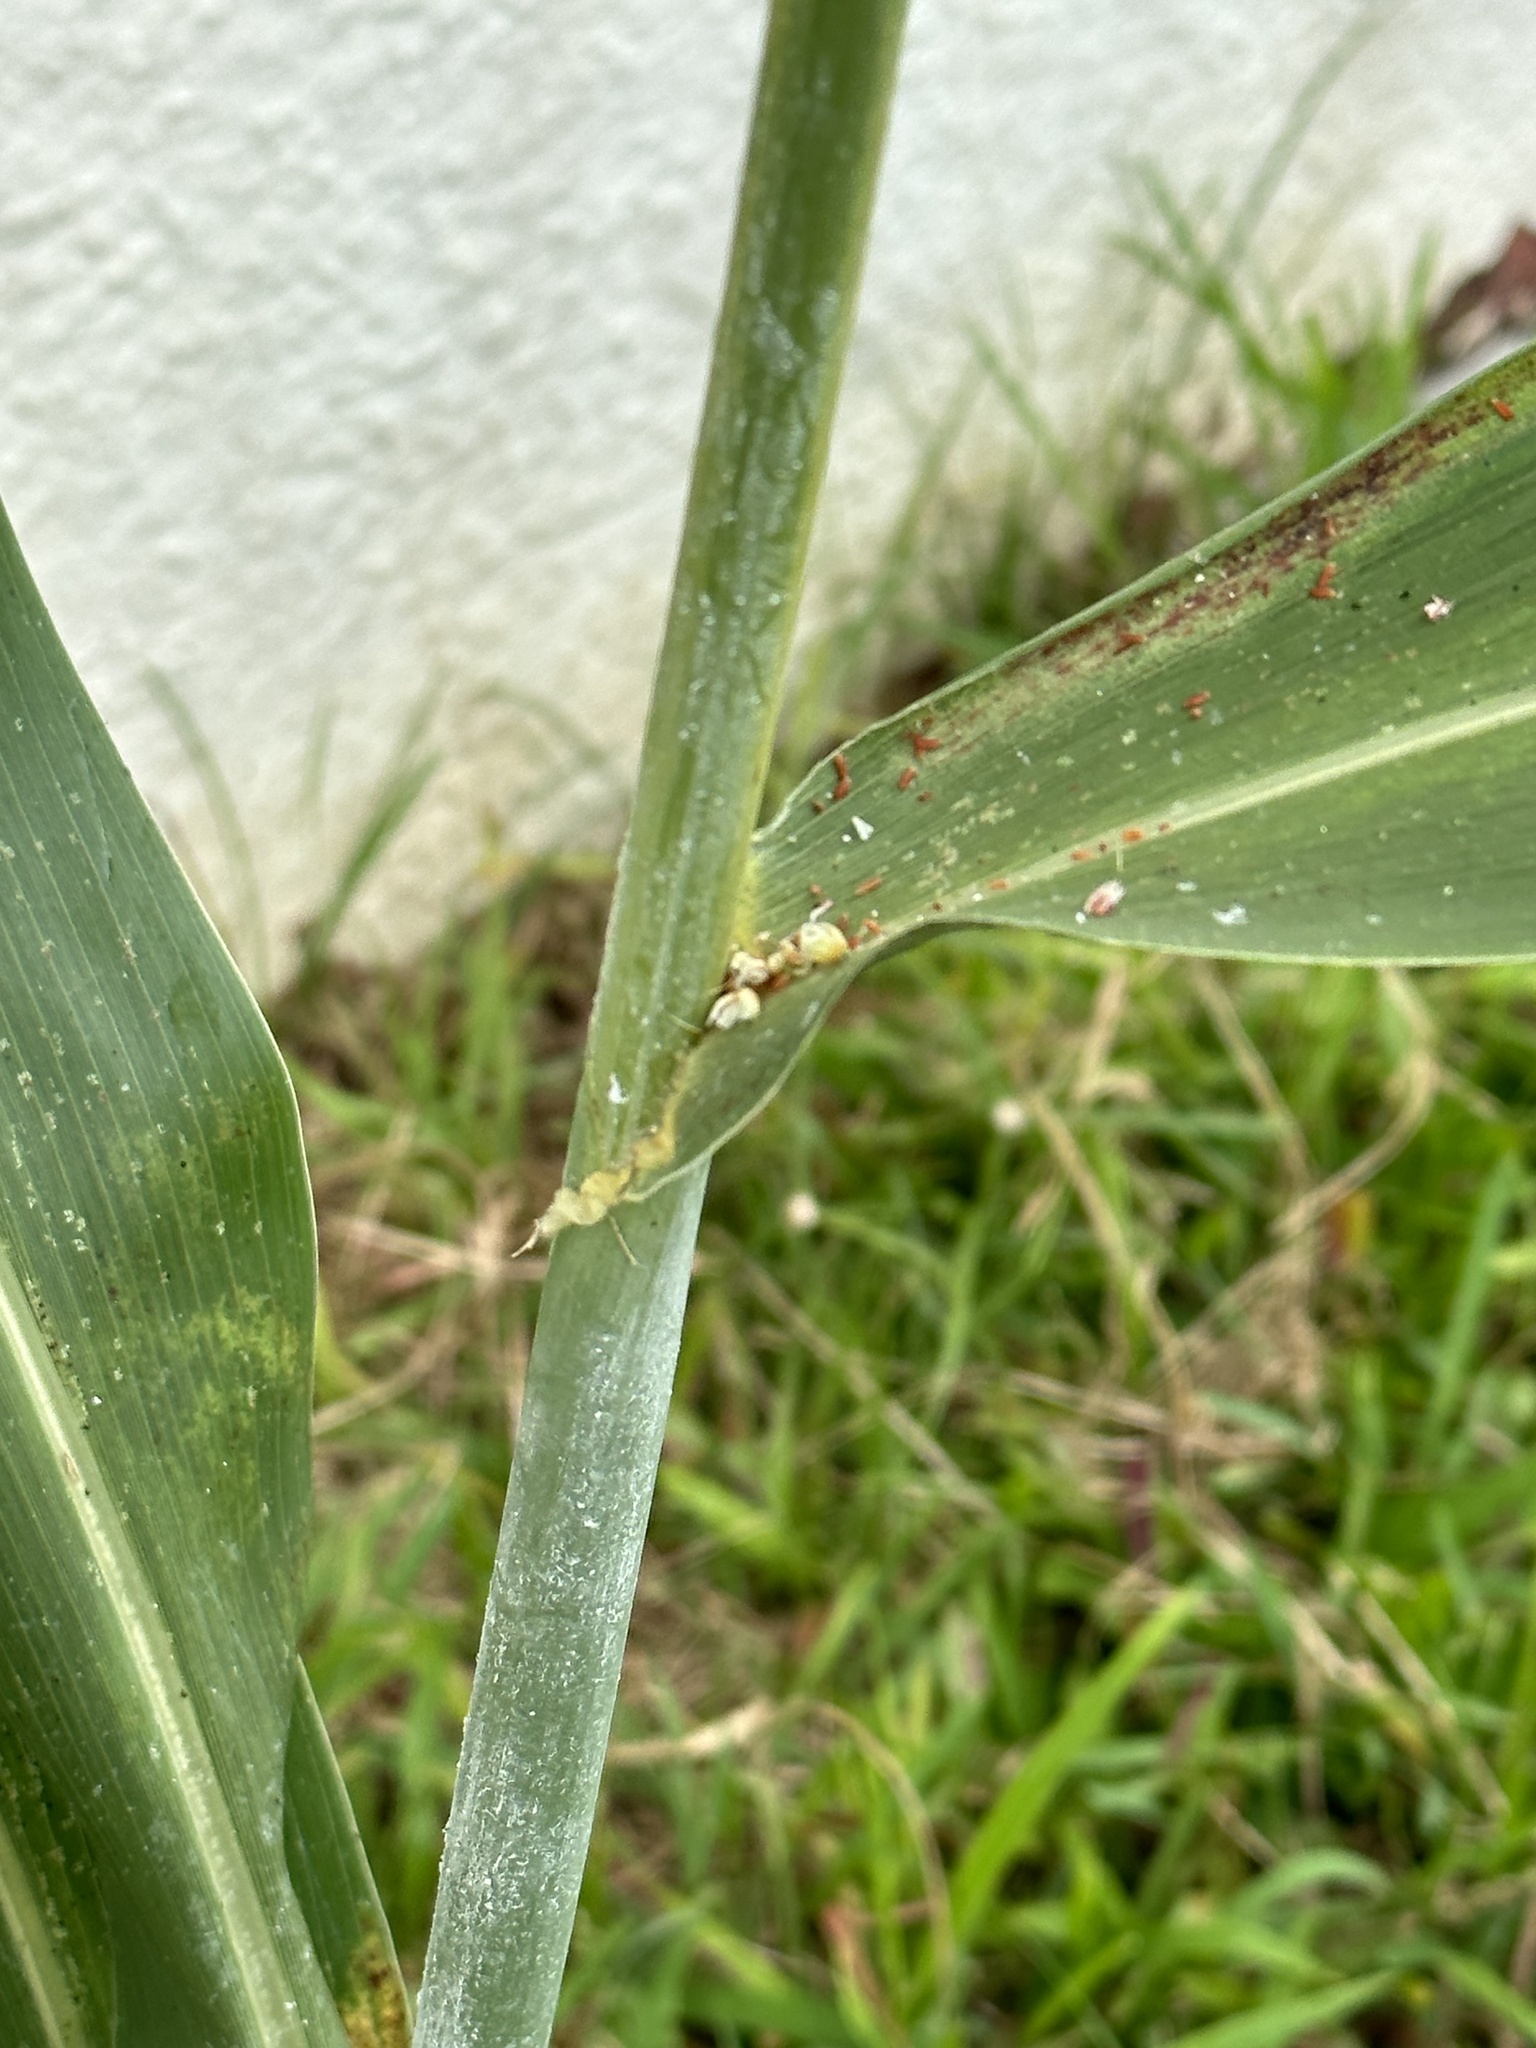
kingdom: Plantae
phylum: Tracheophyta
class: Liliopsida
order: Poales
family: Poaceae
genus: Sorghum
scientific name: Sorghum bicolor
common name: Sorghum
